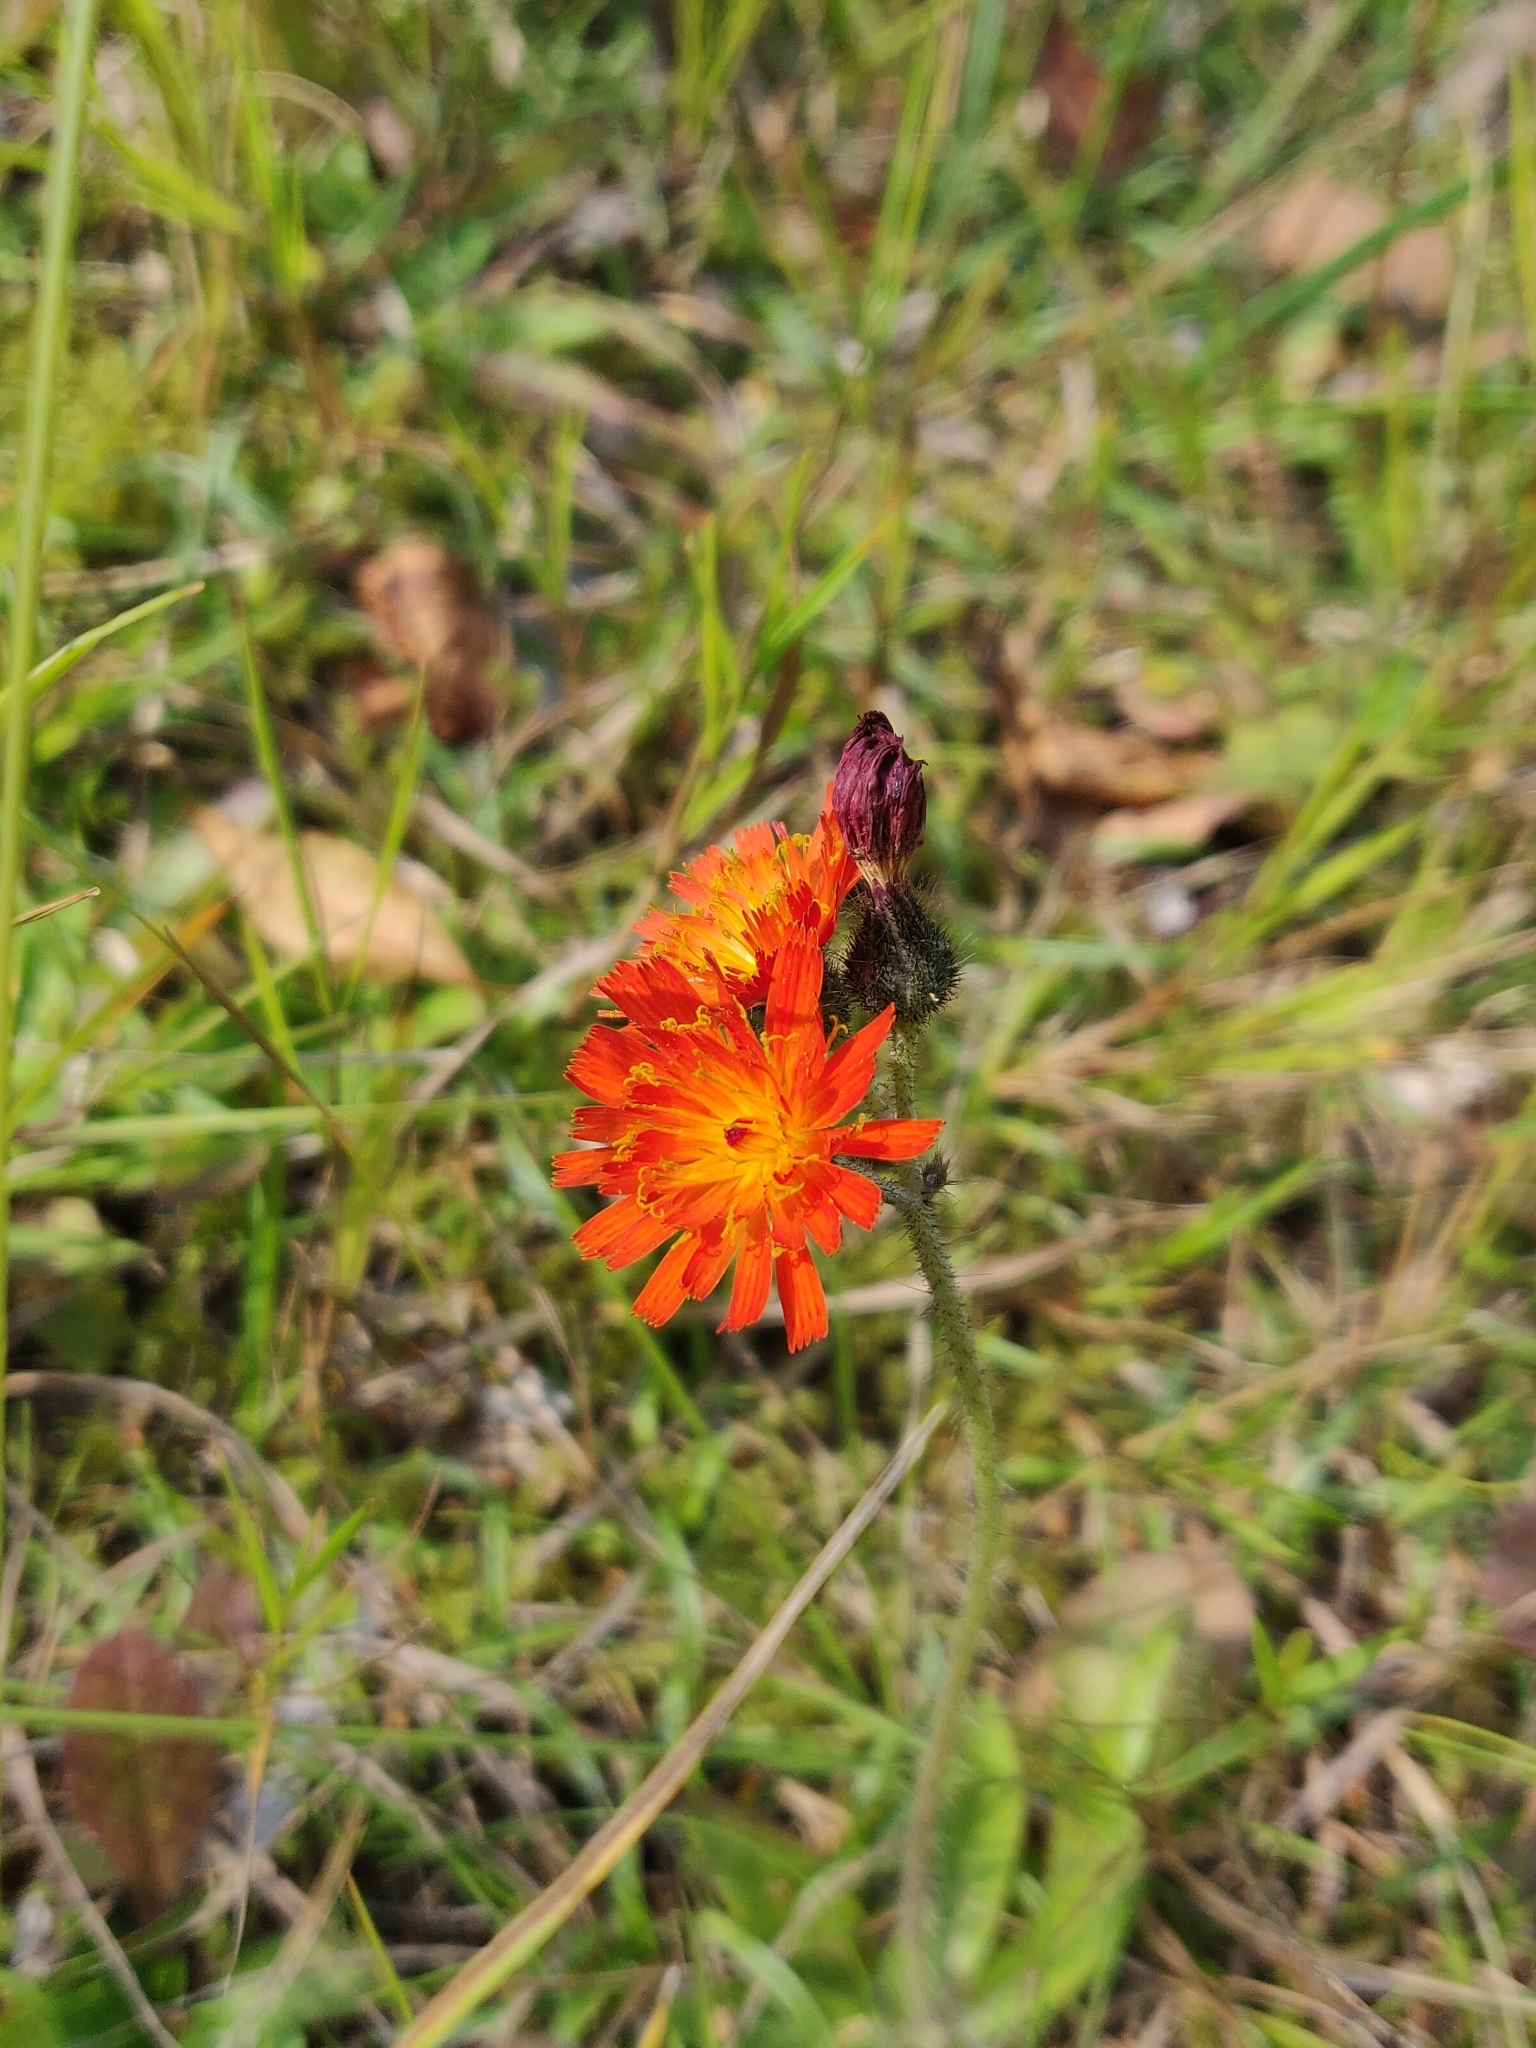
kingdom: Plantae
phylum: Tracheophyta
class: Magnoliopsida
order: Asterales
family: Asteraceae
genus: Pilosella
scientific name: Pilosella aurantiaca
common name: Fox-and-cubs
